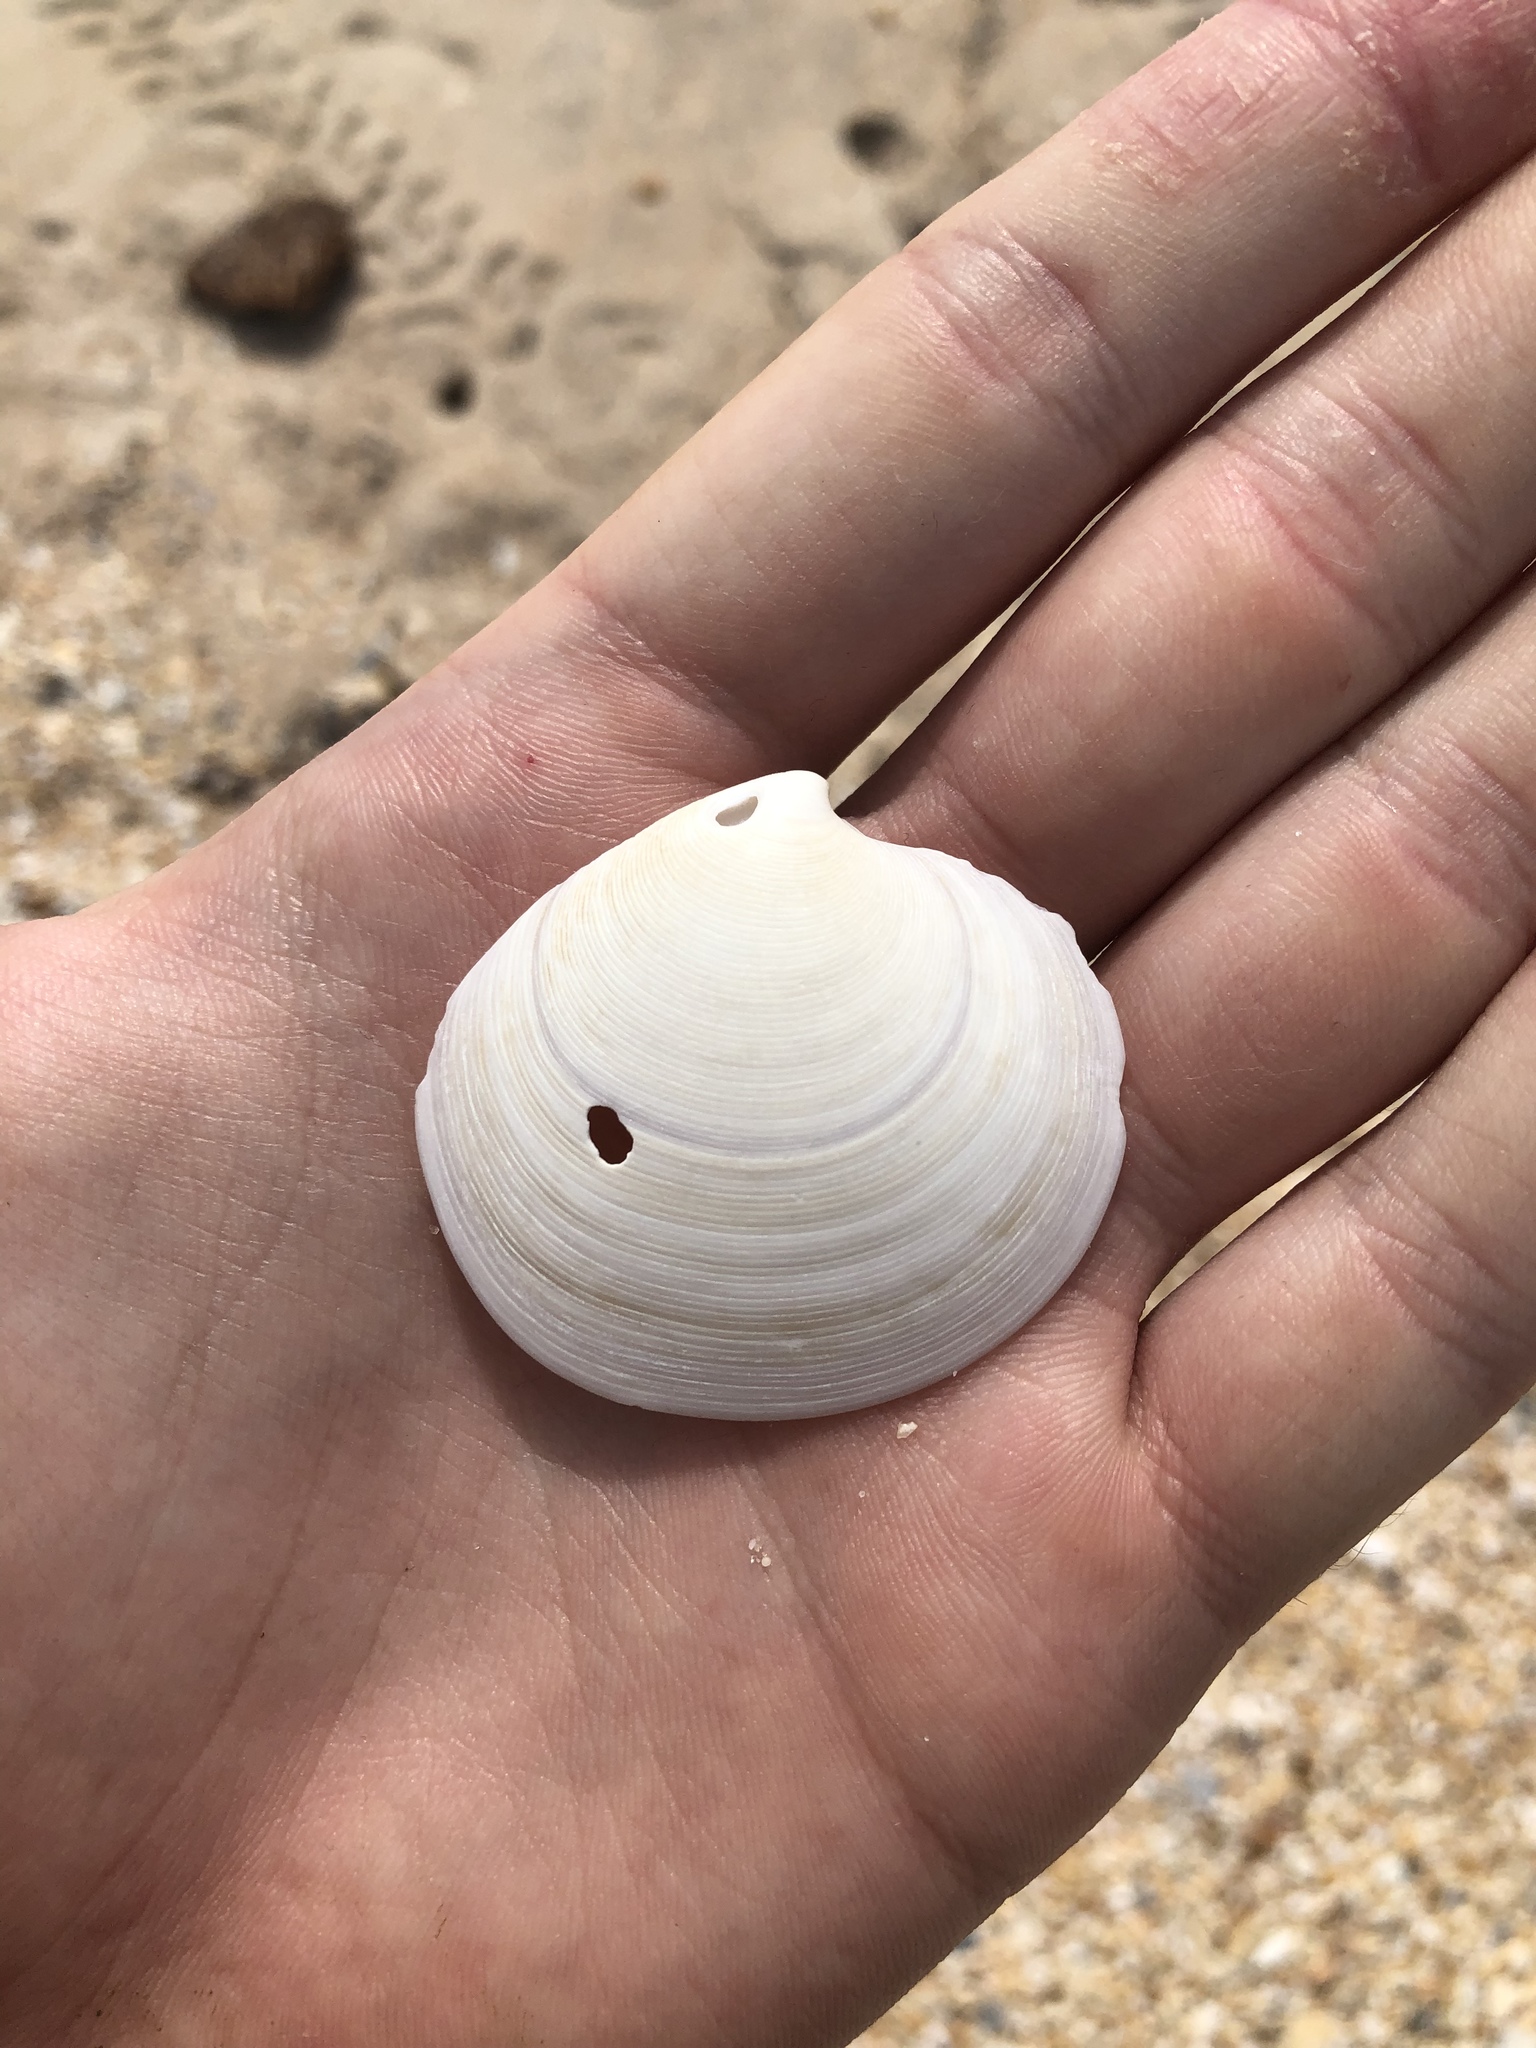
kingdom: Animalia
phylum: Mollusca
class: Bivalvia
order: Venerida
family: Veneridae
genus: Dosinia
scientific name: Dosinia discus
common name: Disk dosinia
